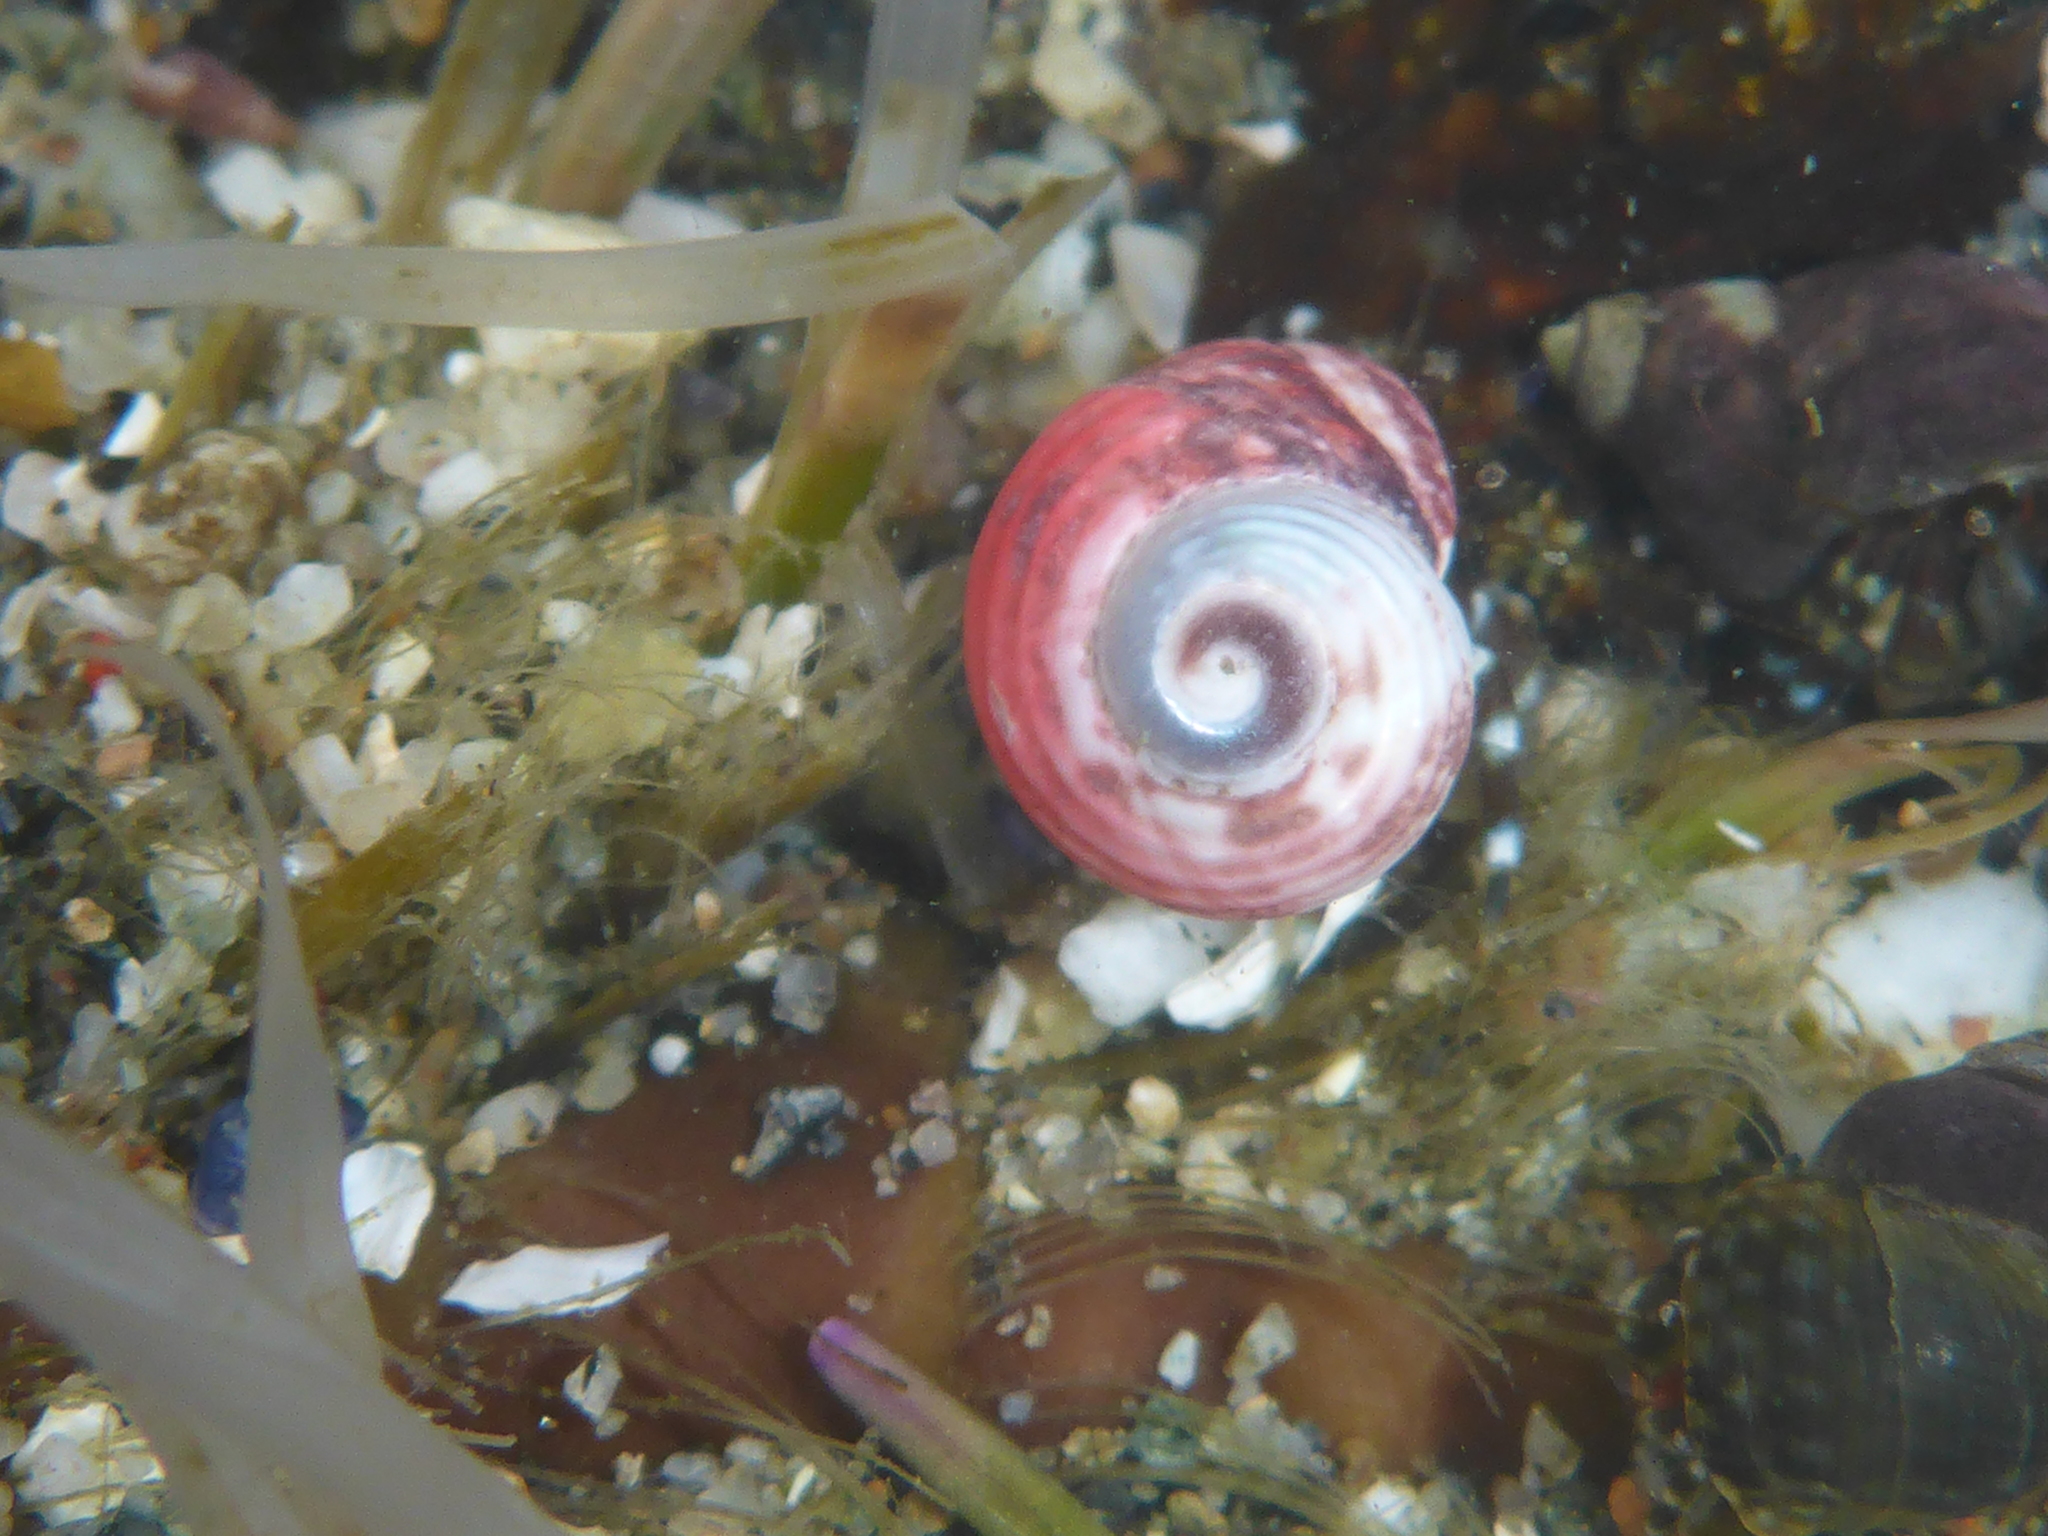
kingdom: Animalia
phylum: Arthropoda
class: Malacostraca
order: Decapoda
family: Paguridae
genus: Pagurus
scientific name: Pagurus samuelis
